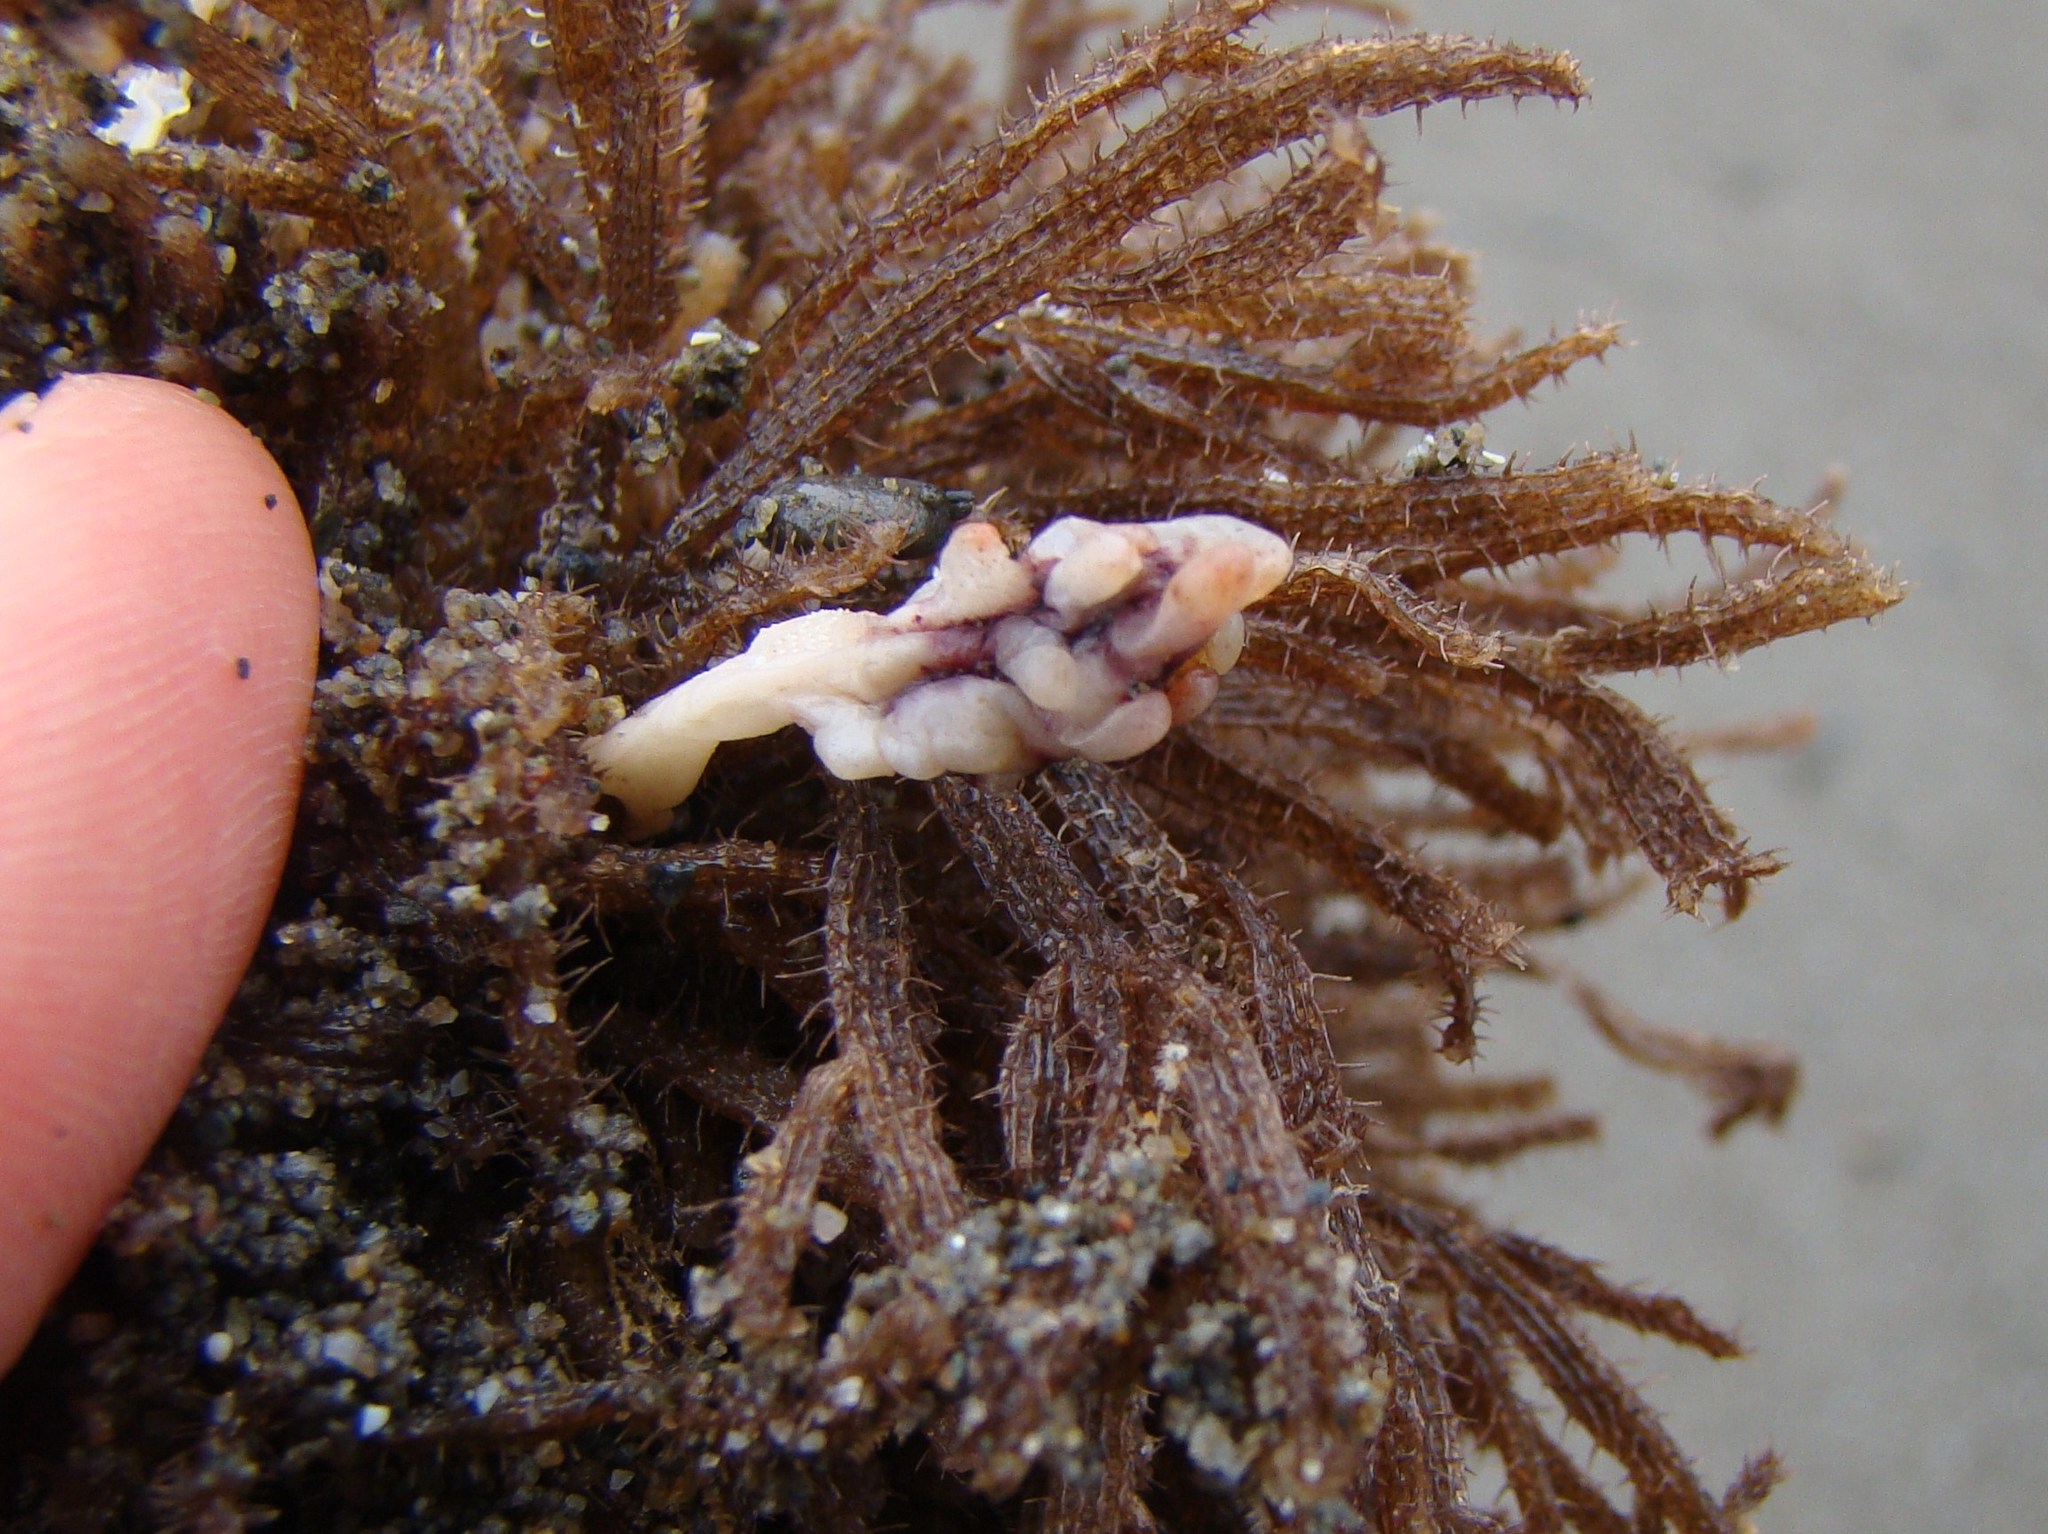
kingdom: Animalia
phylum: Chordata
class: Ascidiacea
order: Stolidobranchia
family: Pyuridae
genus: Pyura
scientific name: Pyura pachydermatina
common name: Sea tulip
